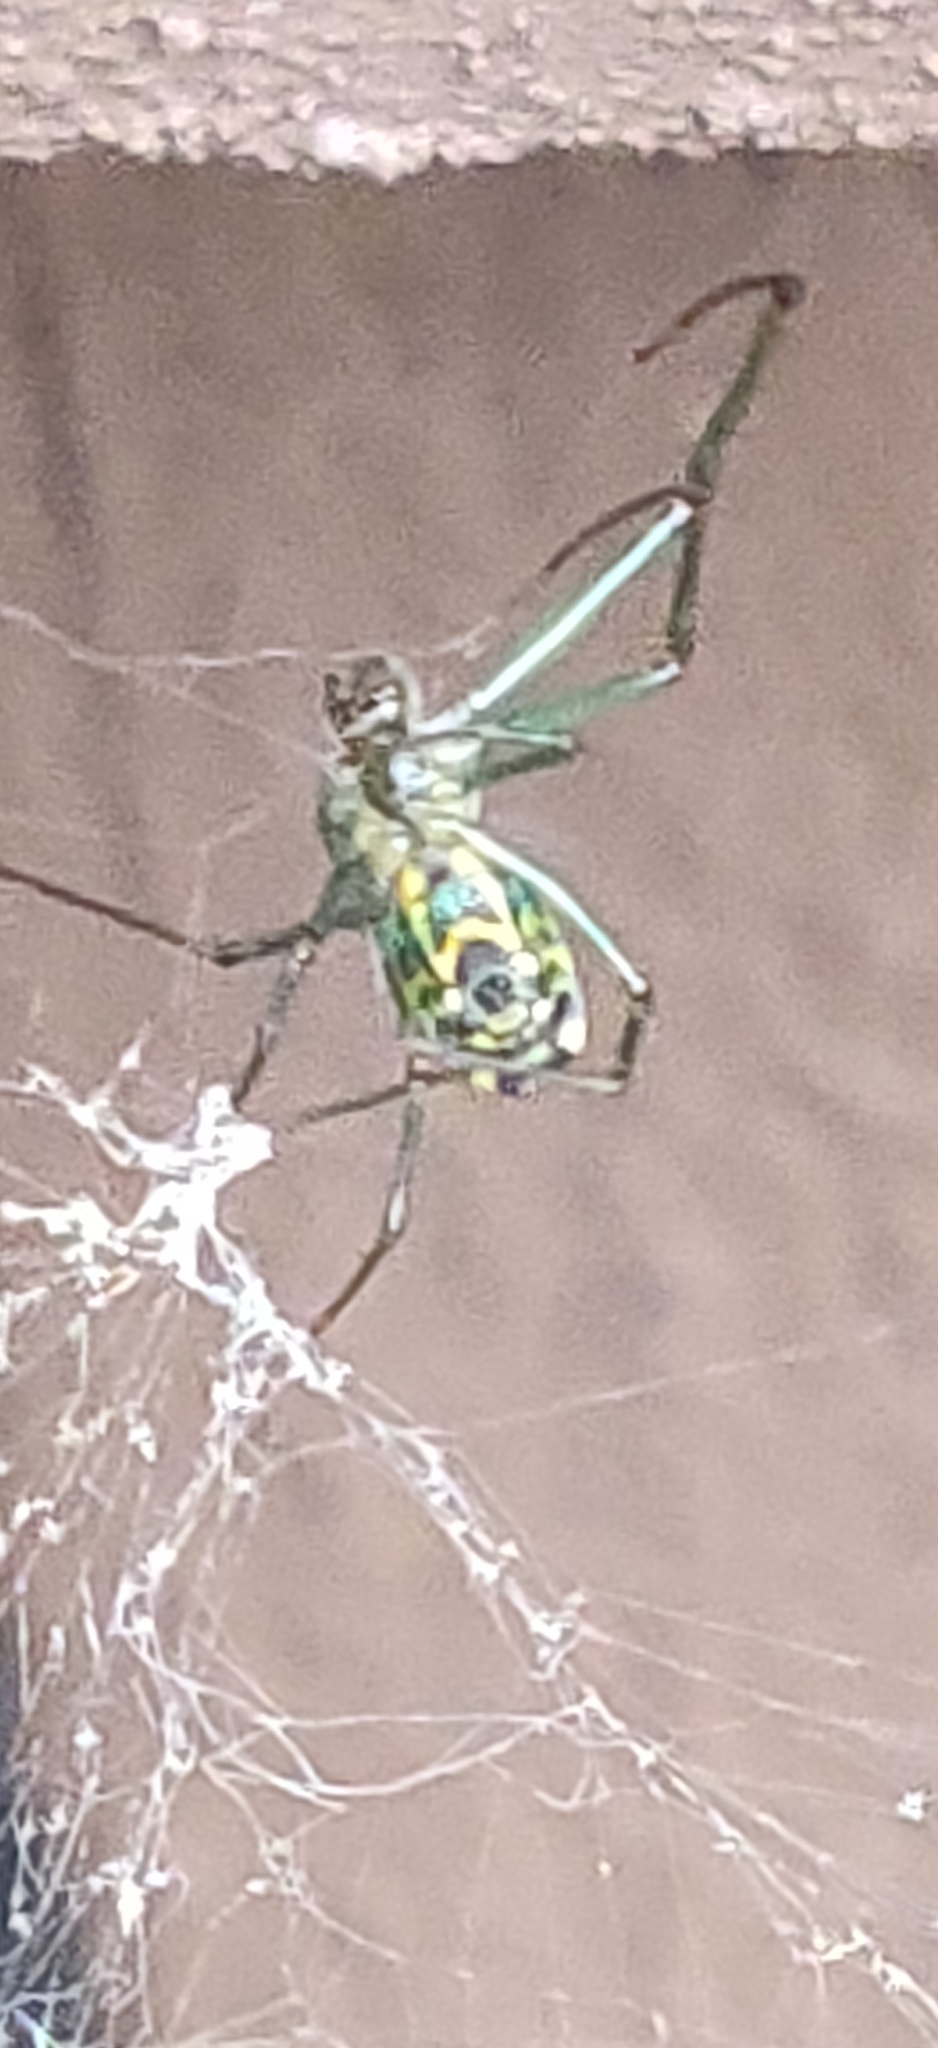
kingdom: Animalia
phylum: Arthropoda
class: Arachnida
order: Araneae
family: Tetragnathidae
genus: Leucauge
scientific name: Leucauge venusta
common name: Longjawed orb weavers
